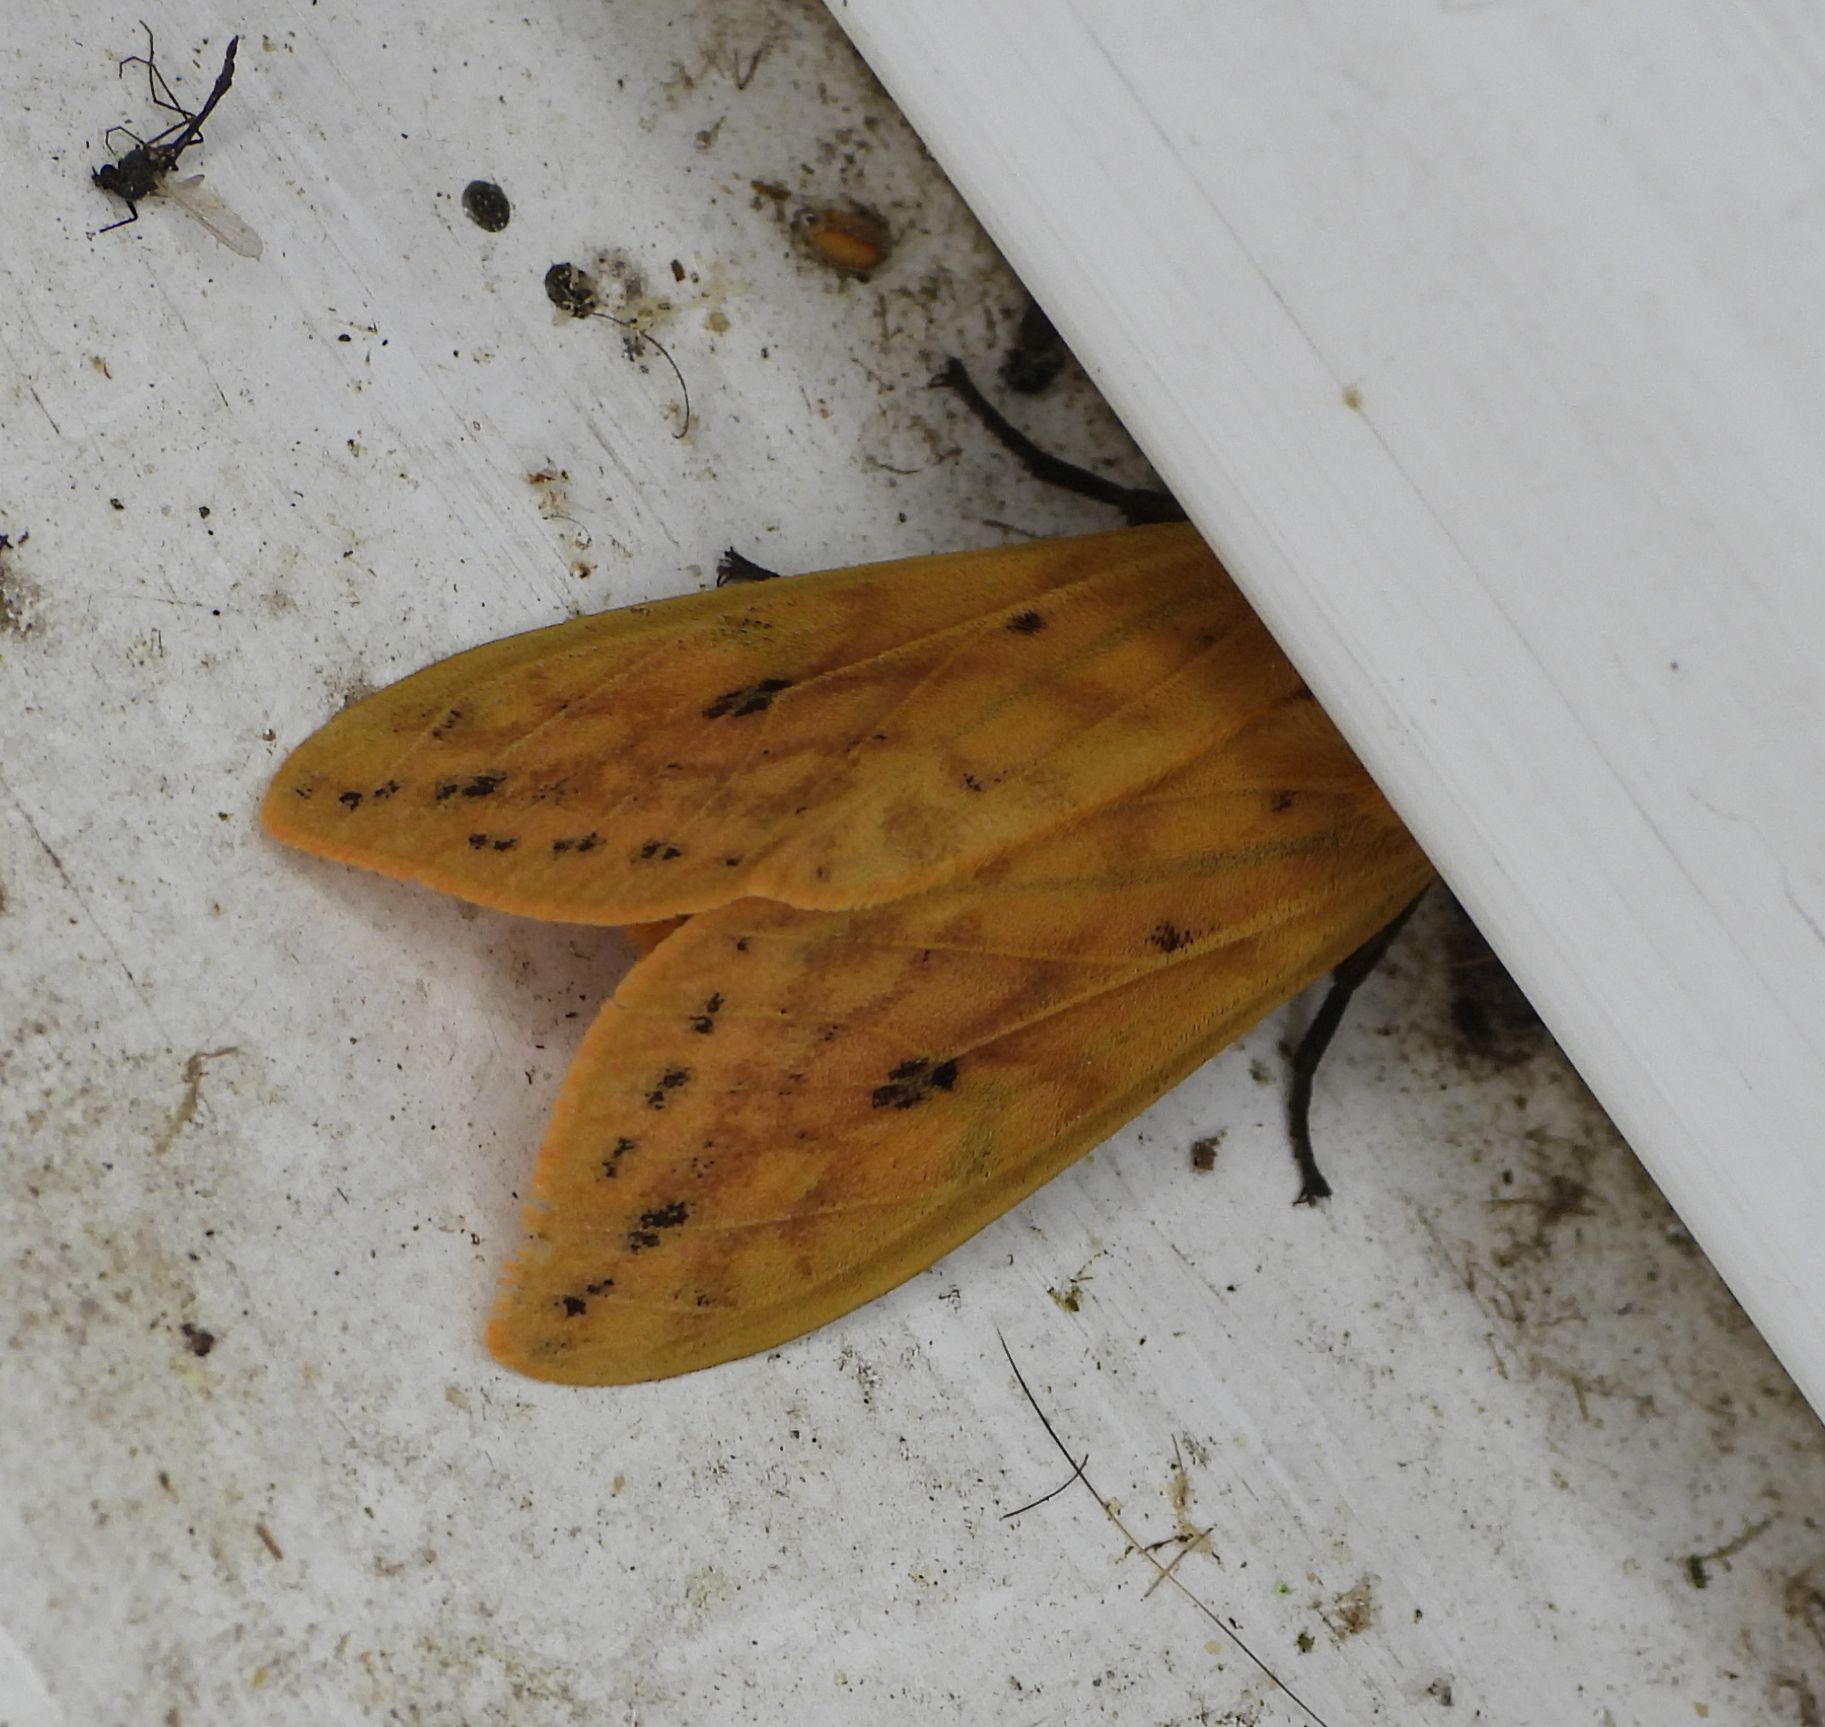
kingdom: Animalia
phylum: Arthropoda
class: Insecta
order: Lepidoptera
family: Erebidae
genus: Pyrrharctia
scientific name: Pyrrharctia isabella
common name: Isabella tiger moth
